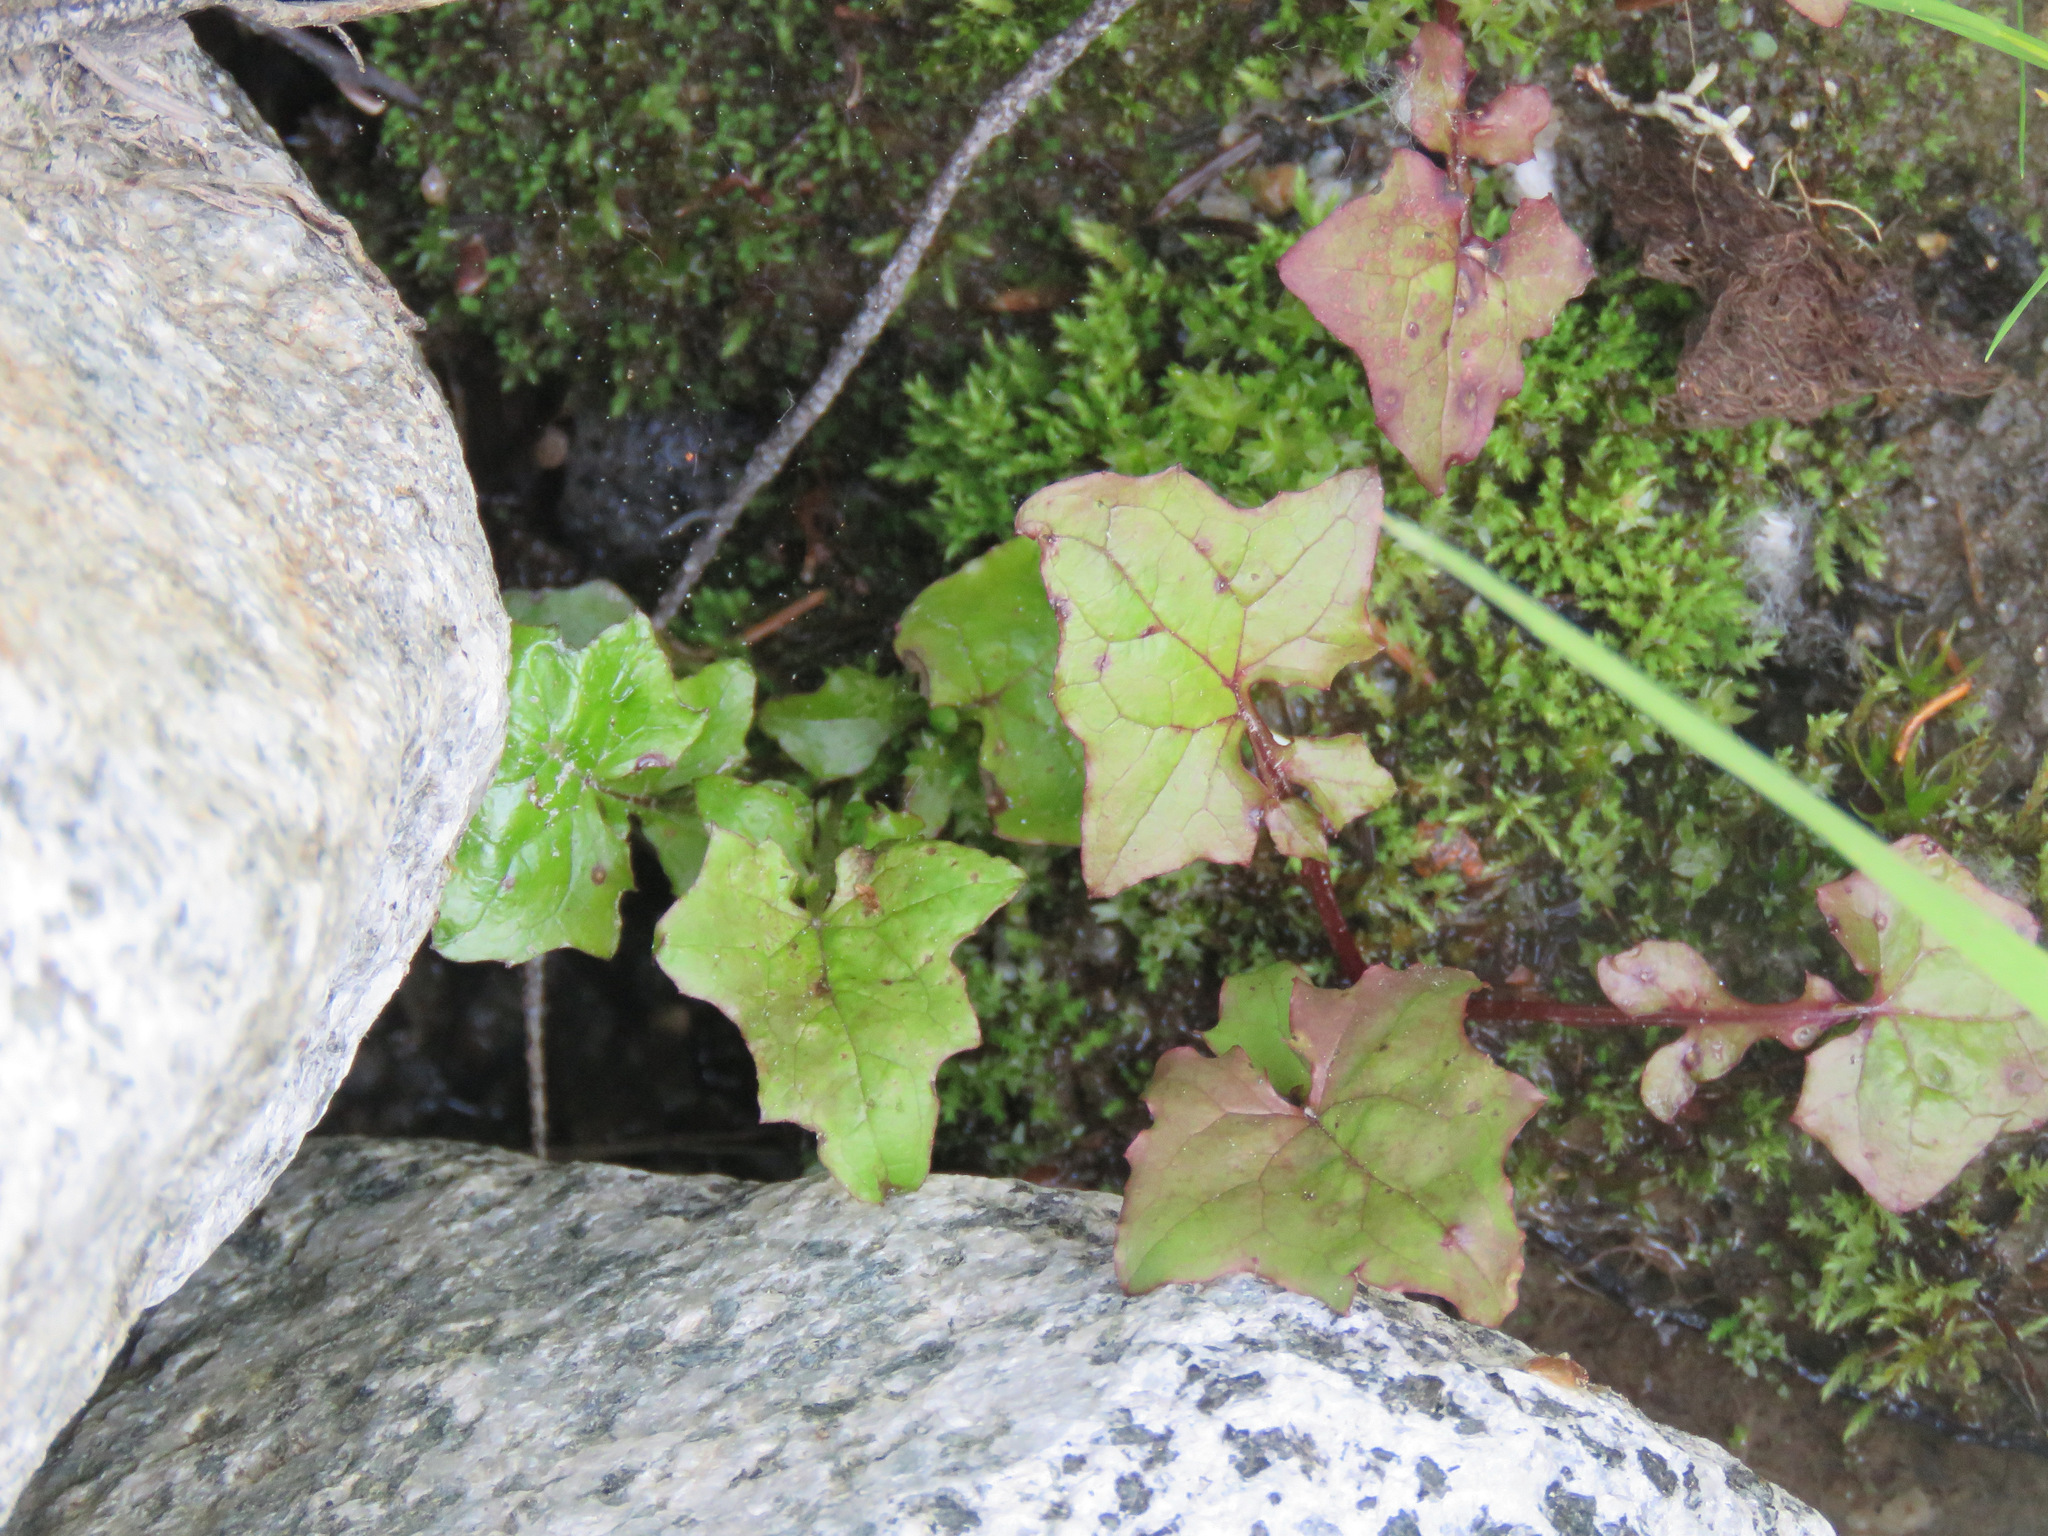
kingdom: Plantae
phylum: Tracheophyta
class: Magnoliopsida
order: Asterales
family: Asteraceae
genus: Mycelis
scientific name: Mycelis muralis
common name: Wall lettuce
